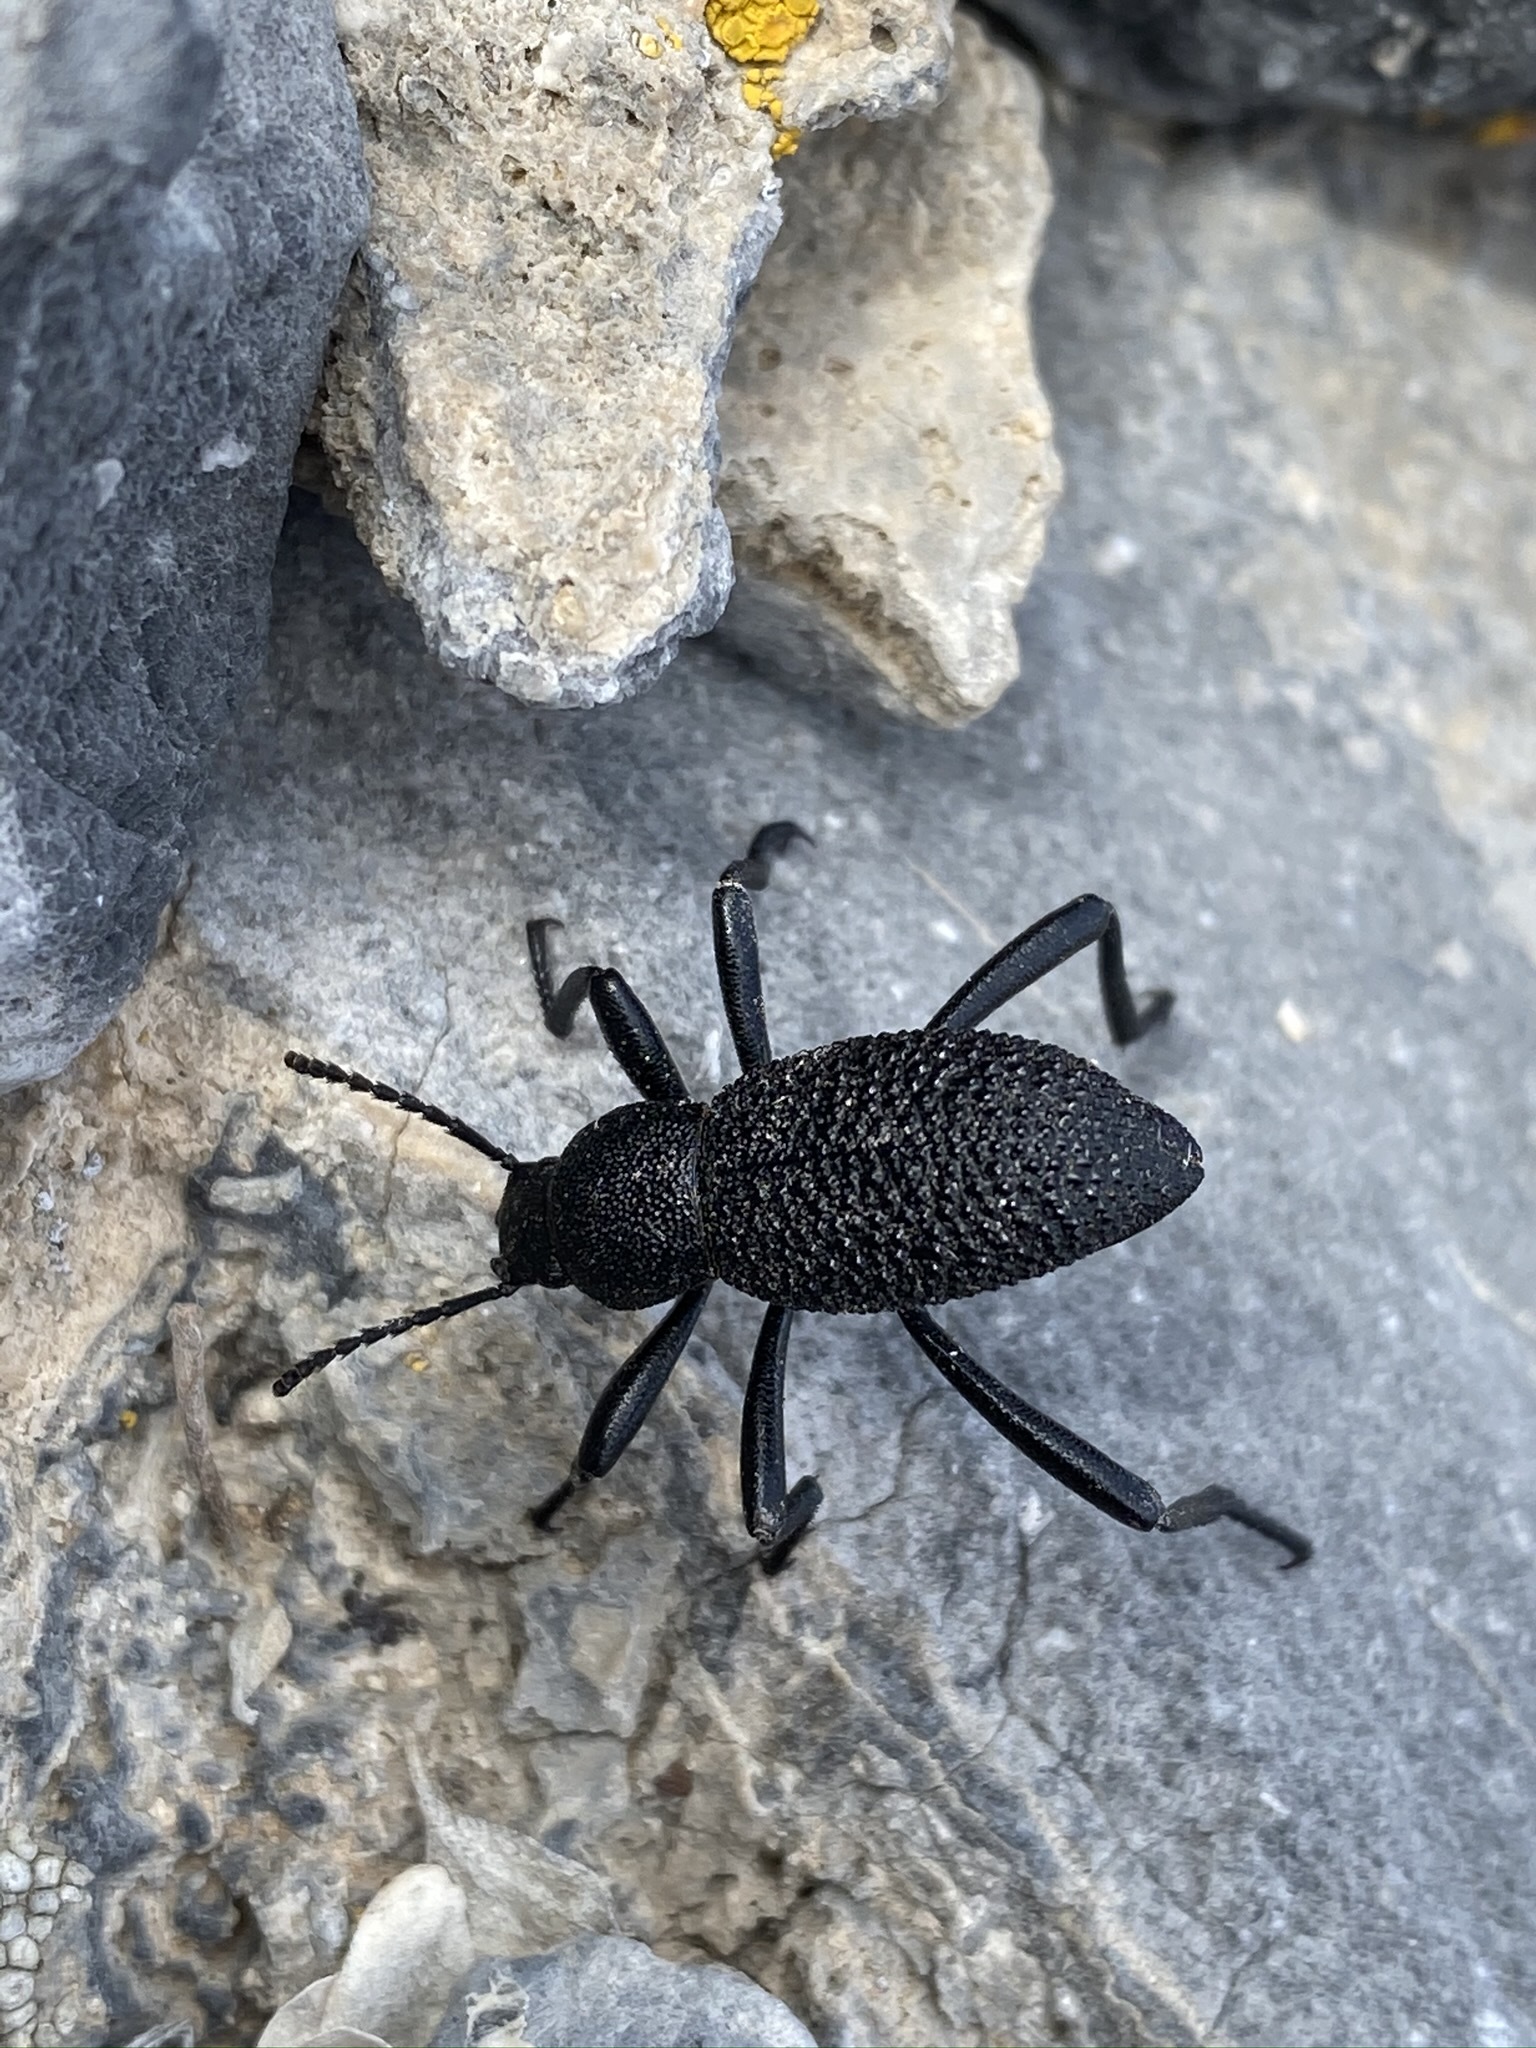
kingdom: Animalia
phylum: Arthropoda
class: Insecta
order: Coleoptera
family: Tenebrionidae
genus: Eleodes
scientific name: Eleodes granosa
